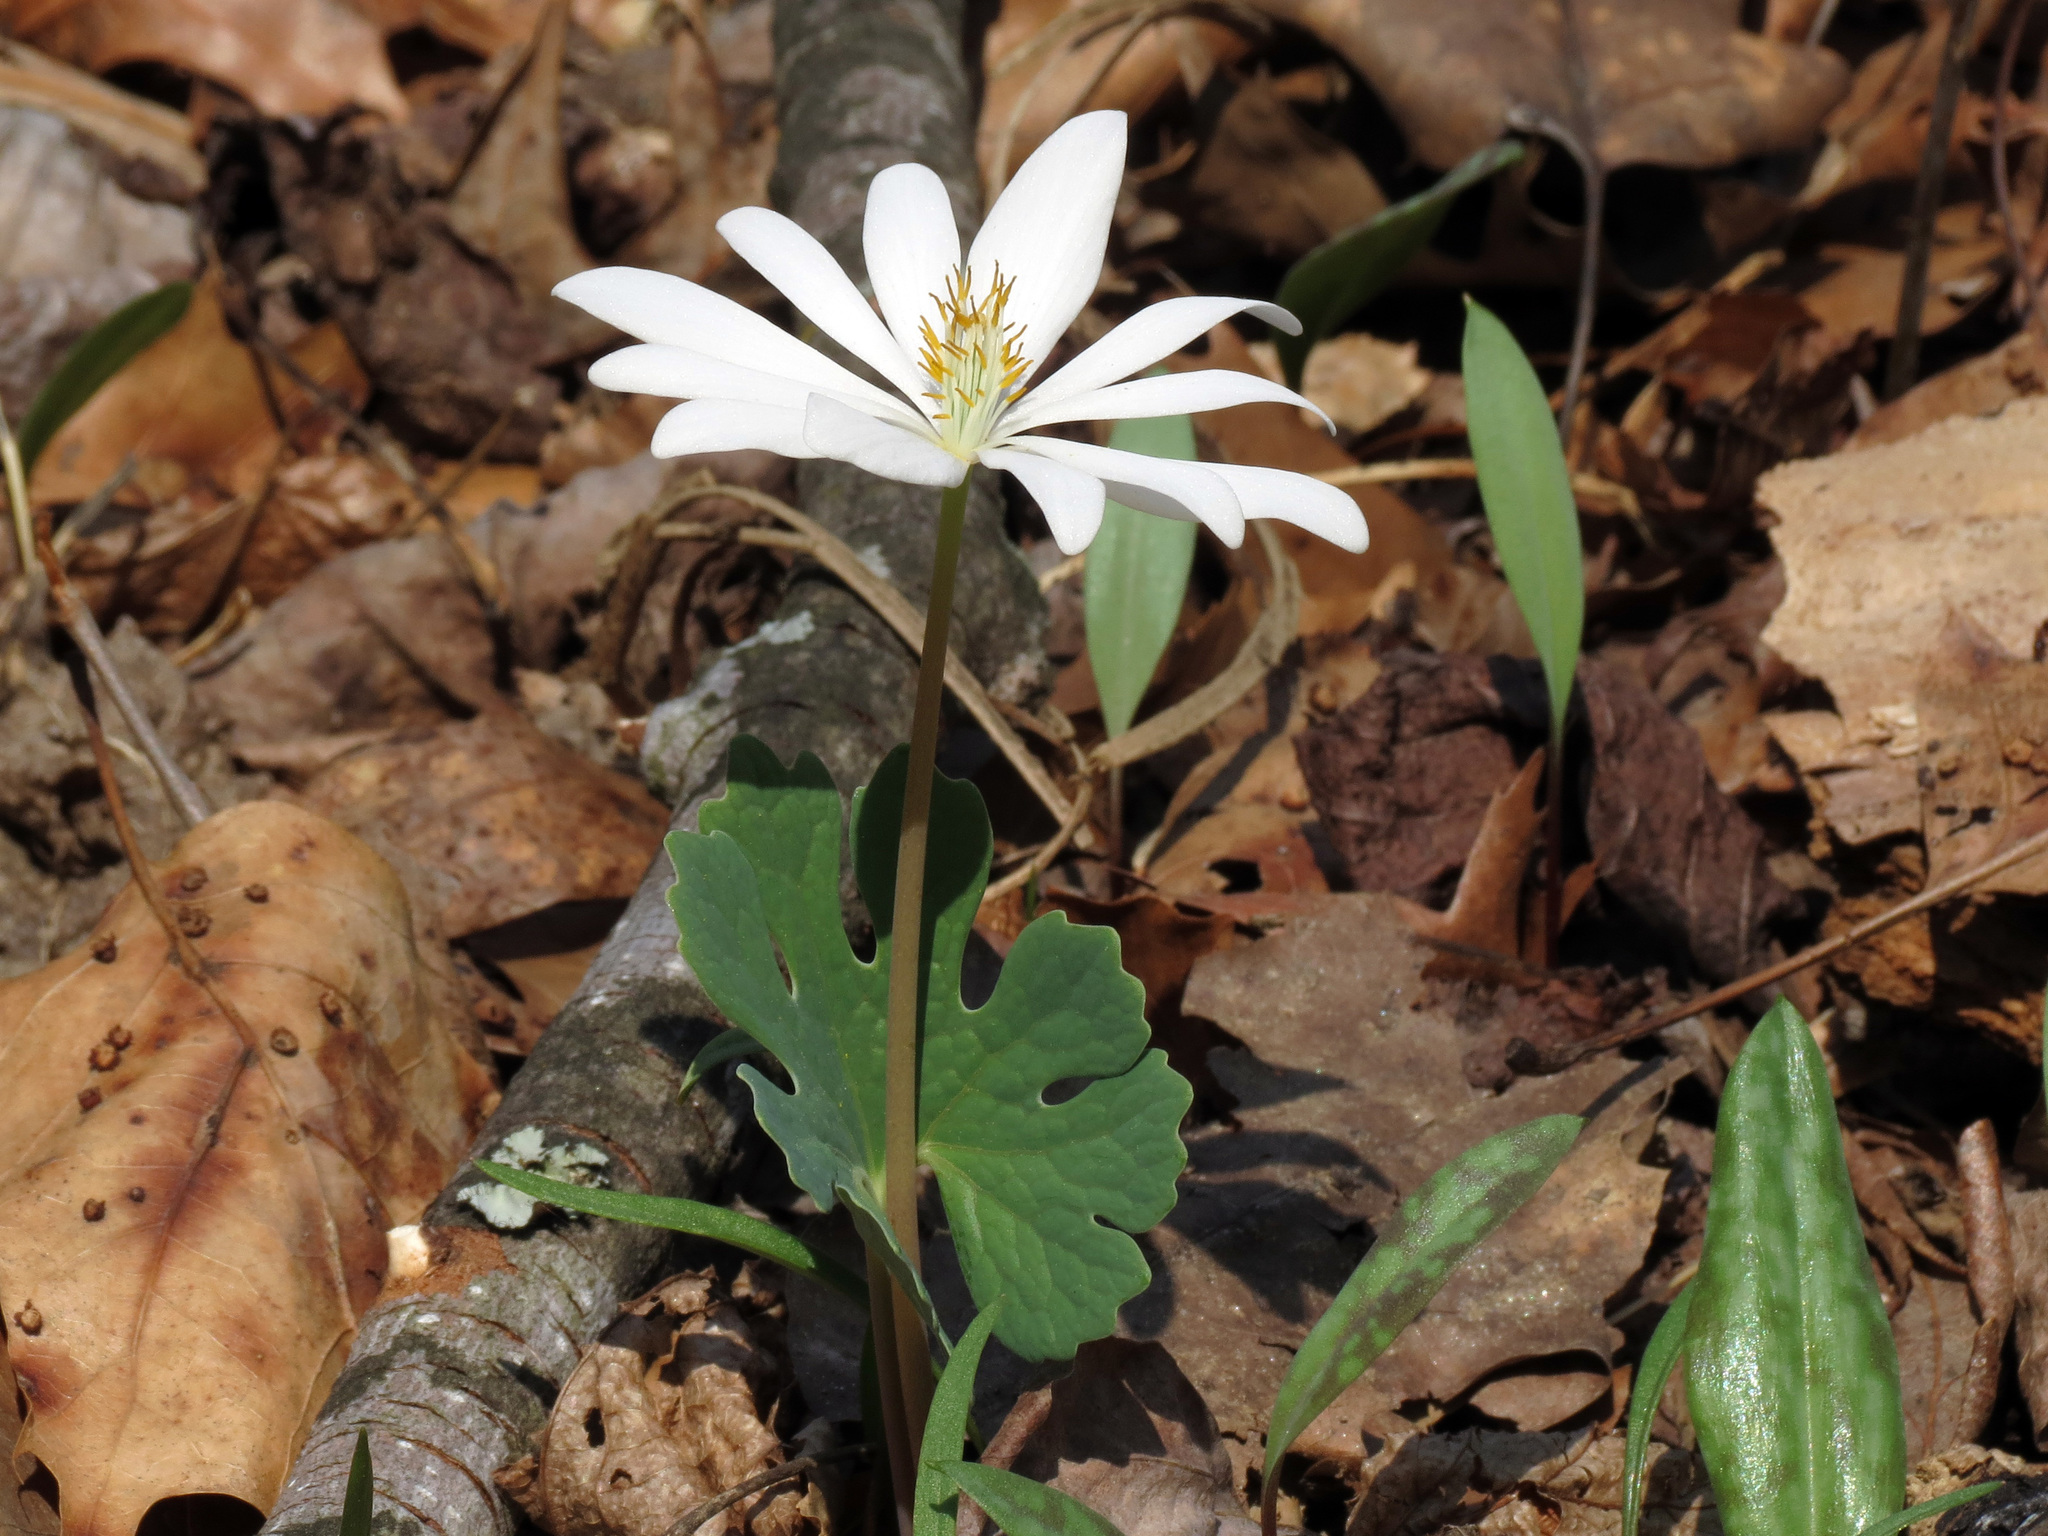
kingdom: Plantae
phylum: Tracheophyta
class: Magnoliopsida
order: Ranunculales
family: Papaveraceae
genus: Sanguinaria
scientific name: Sanguinaria canadensis
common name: Bloodroot
